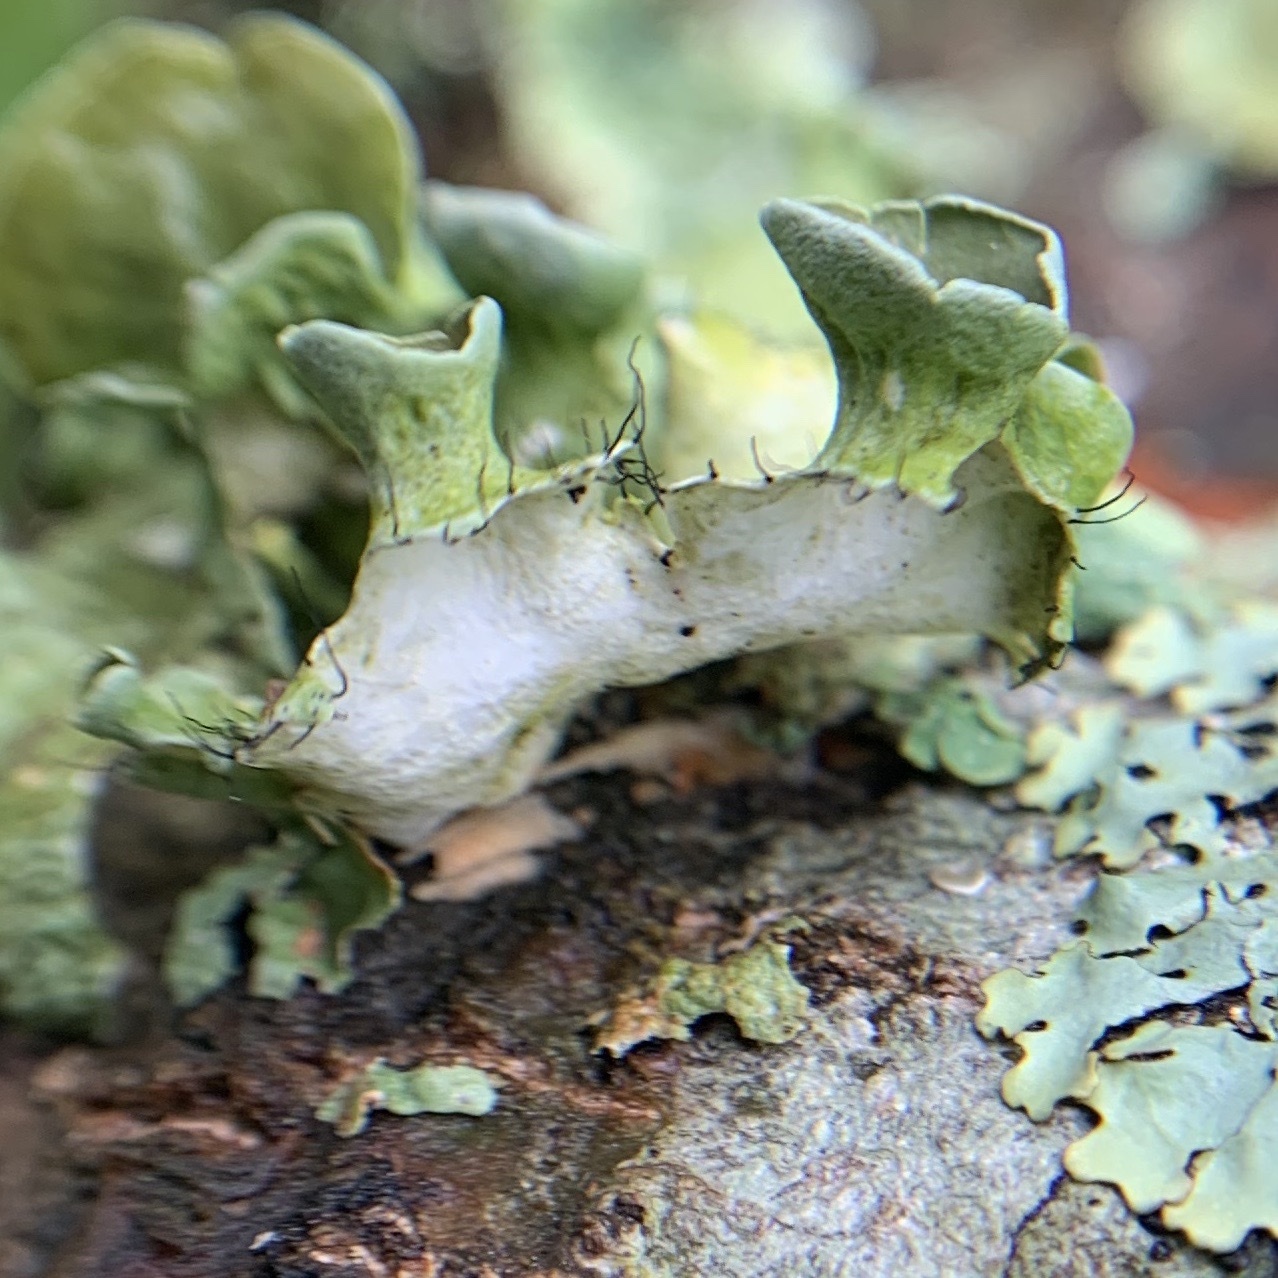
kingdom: Fungi
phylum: Ascomycota
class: Lecanoromycetes
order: Lecanorales
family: Parmeliaceae
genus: Parmotrema
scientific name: Parmotrema perforatum
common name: Perforated ruffle lichen
